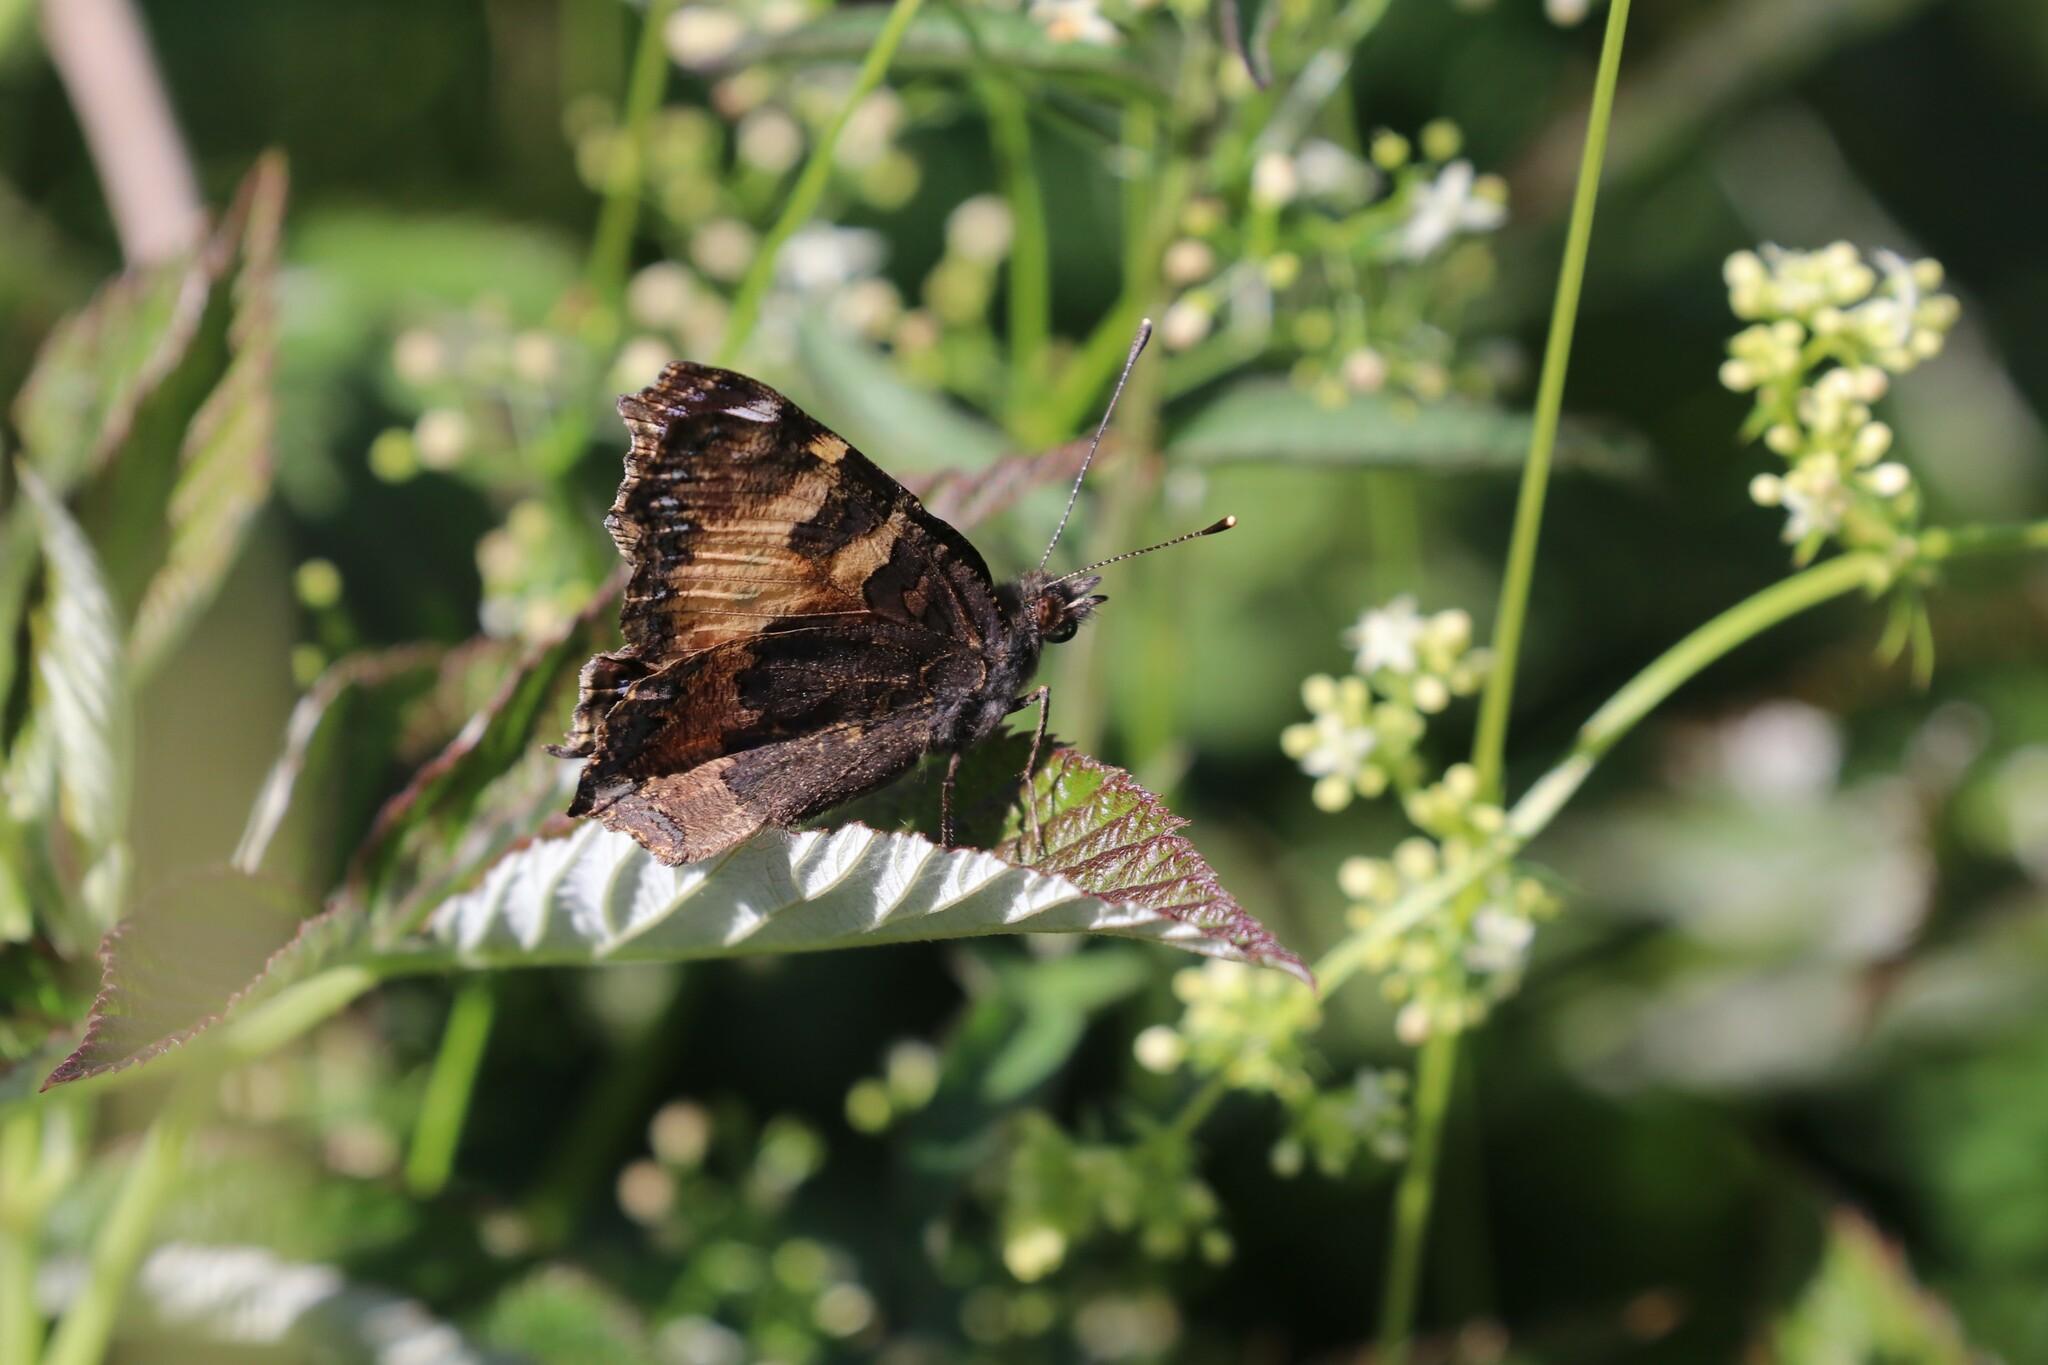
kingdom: Animalia
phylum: Arthropoda
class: Insecta
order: Lepidoptera
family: Nymphalidae
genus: Aglais
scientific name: Aglais urticae
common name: Small tortoiseshell
